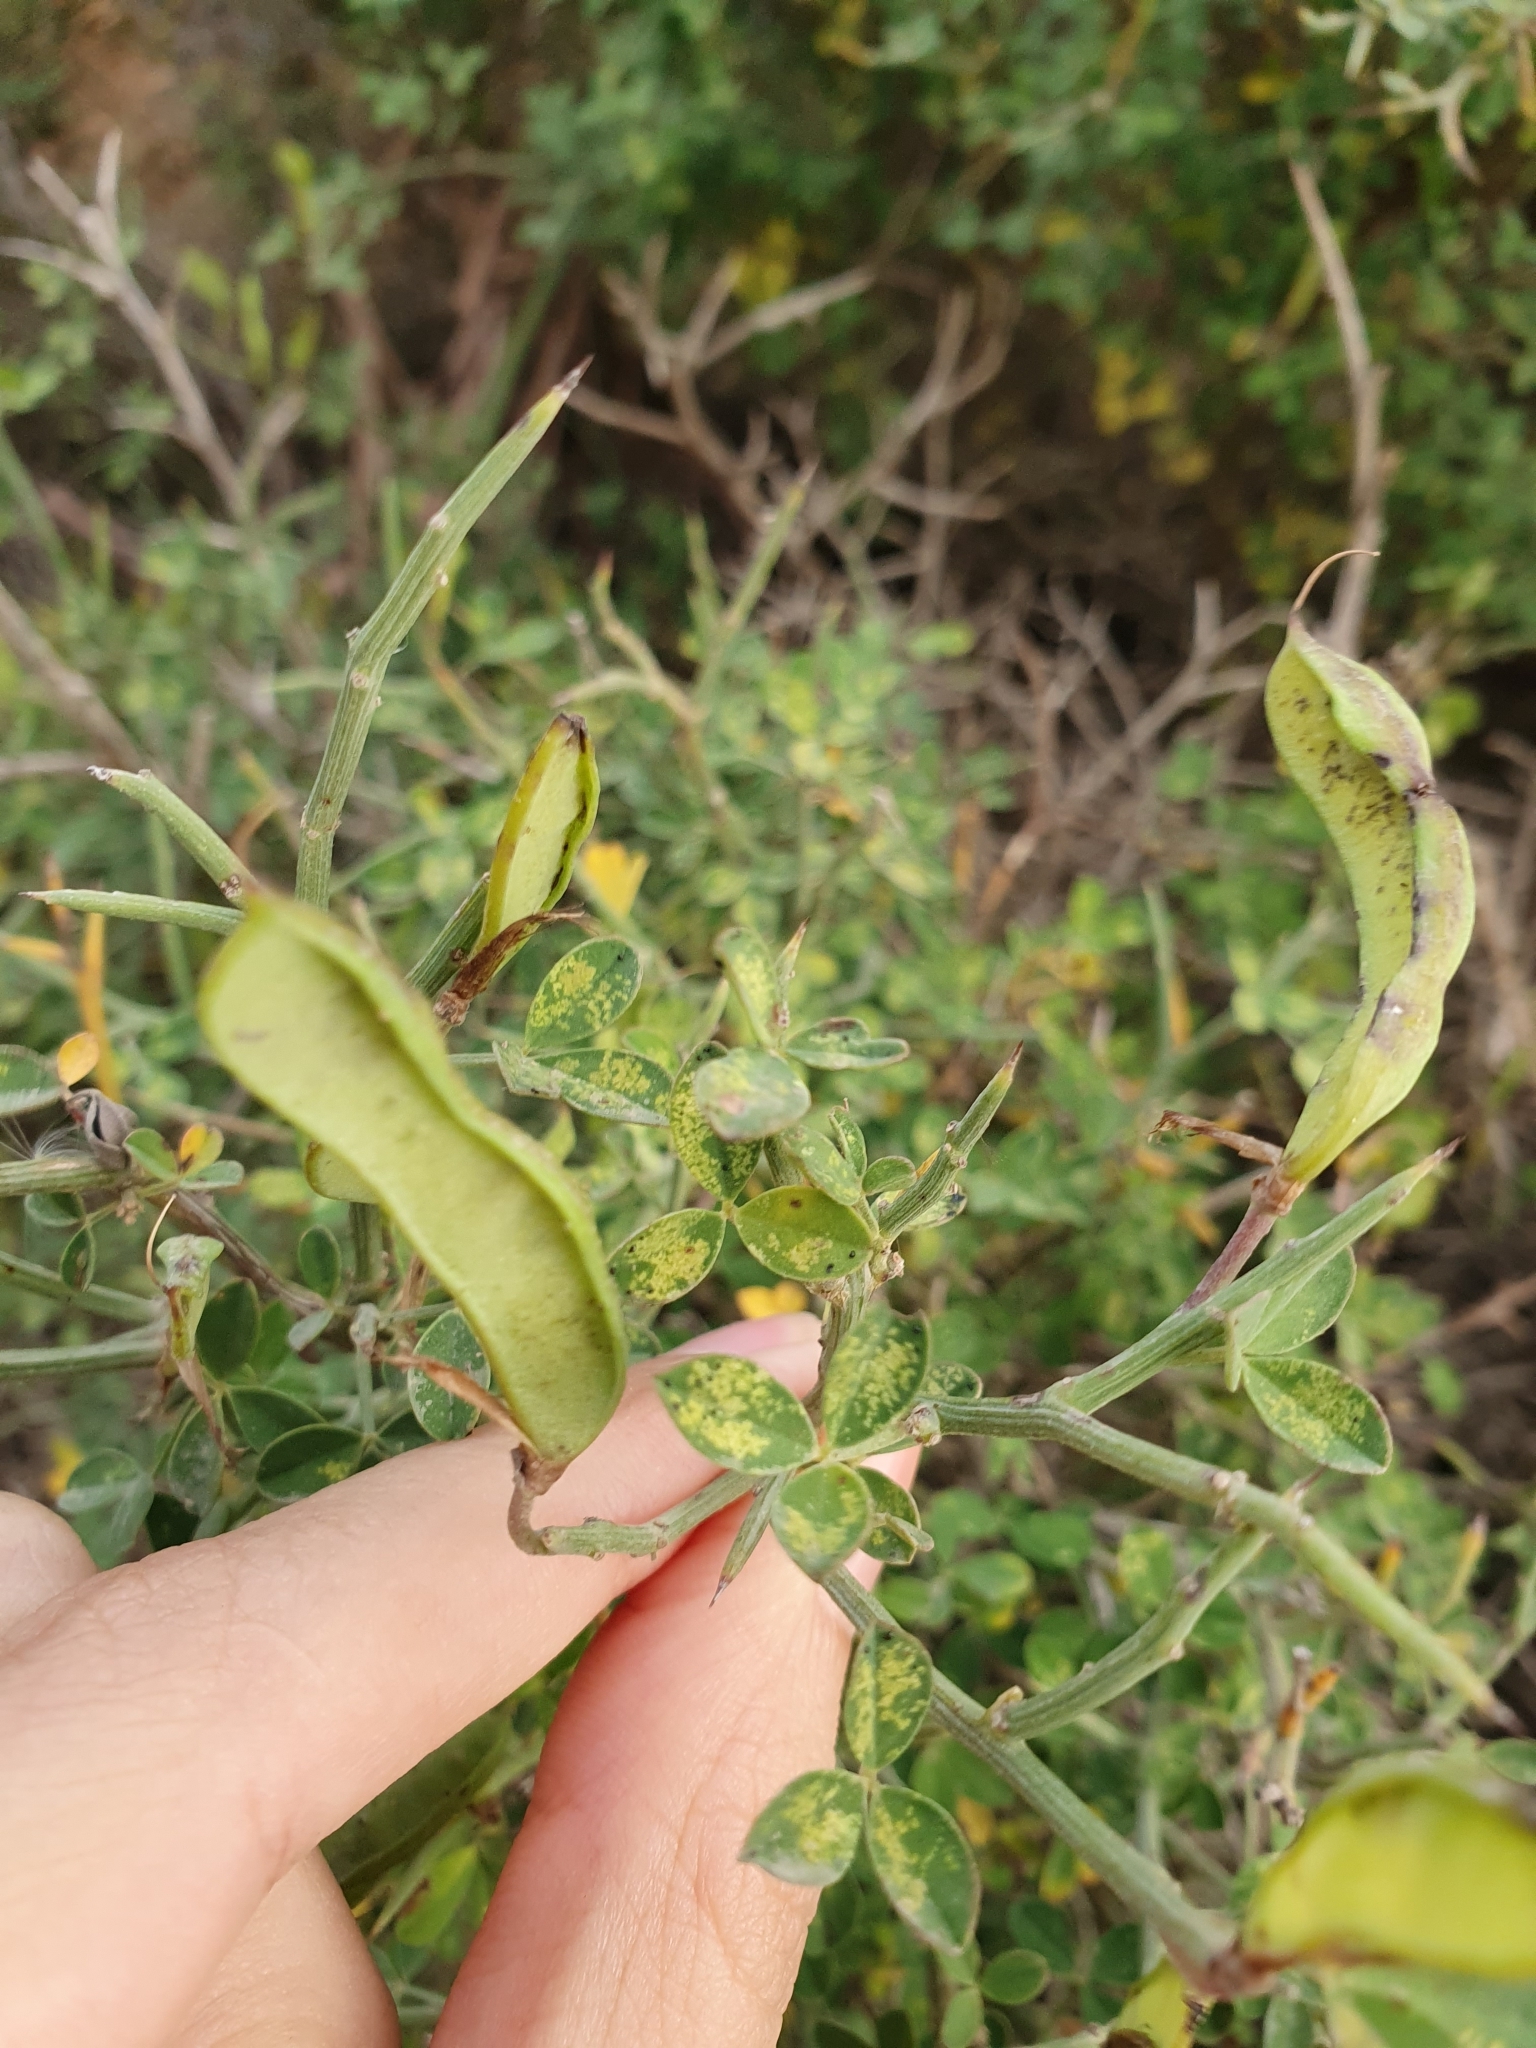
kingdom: Plantae
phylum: Tracheophyta
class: Magnoliopsida
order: Fabales
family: Fabaceae
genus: Calicotome
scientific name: Calicotome spinosa
